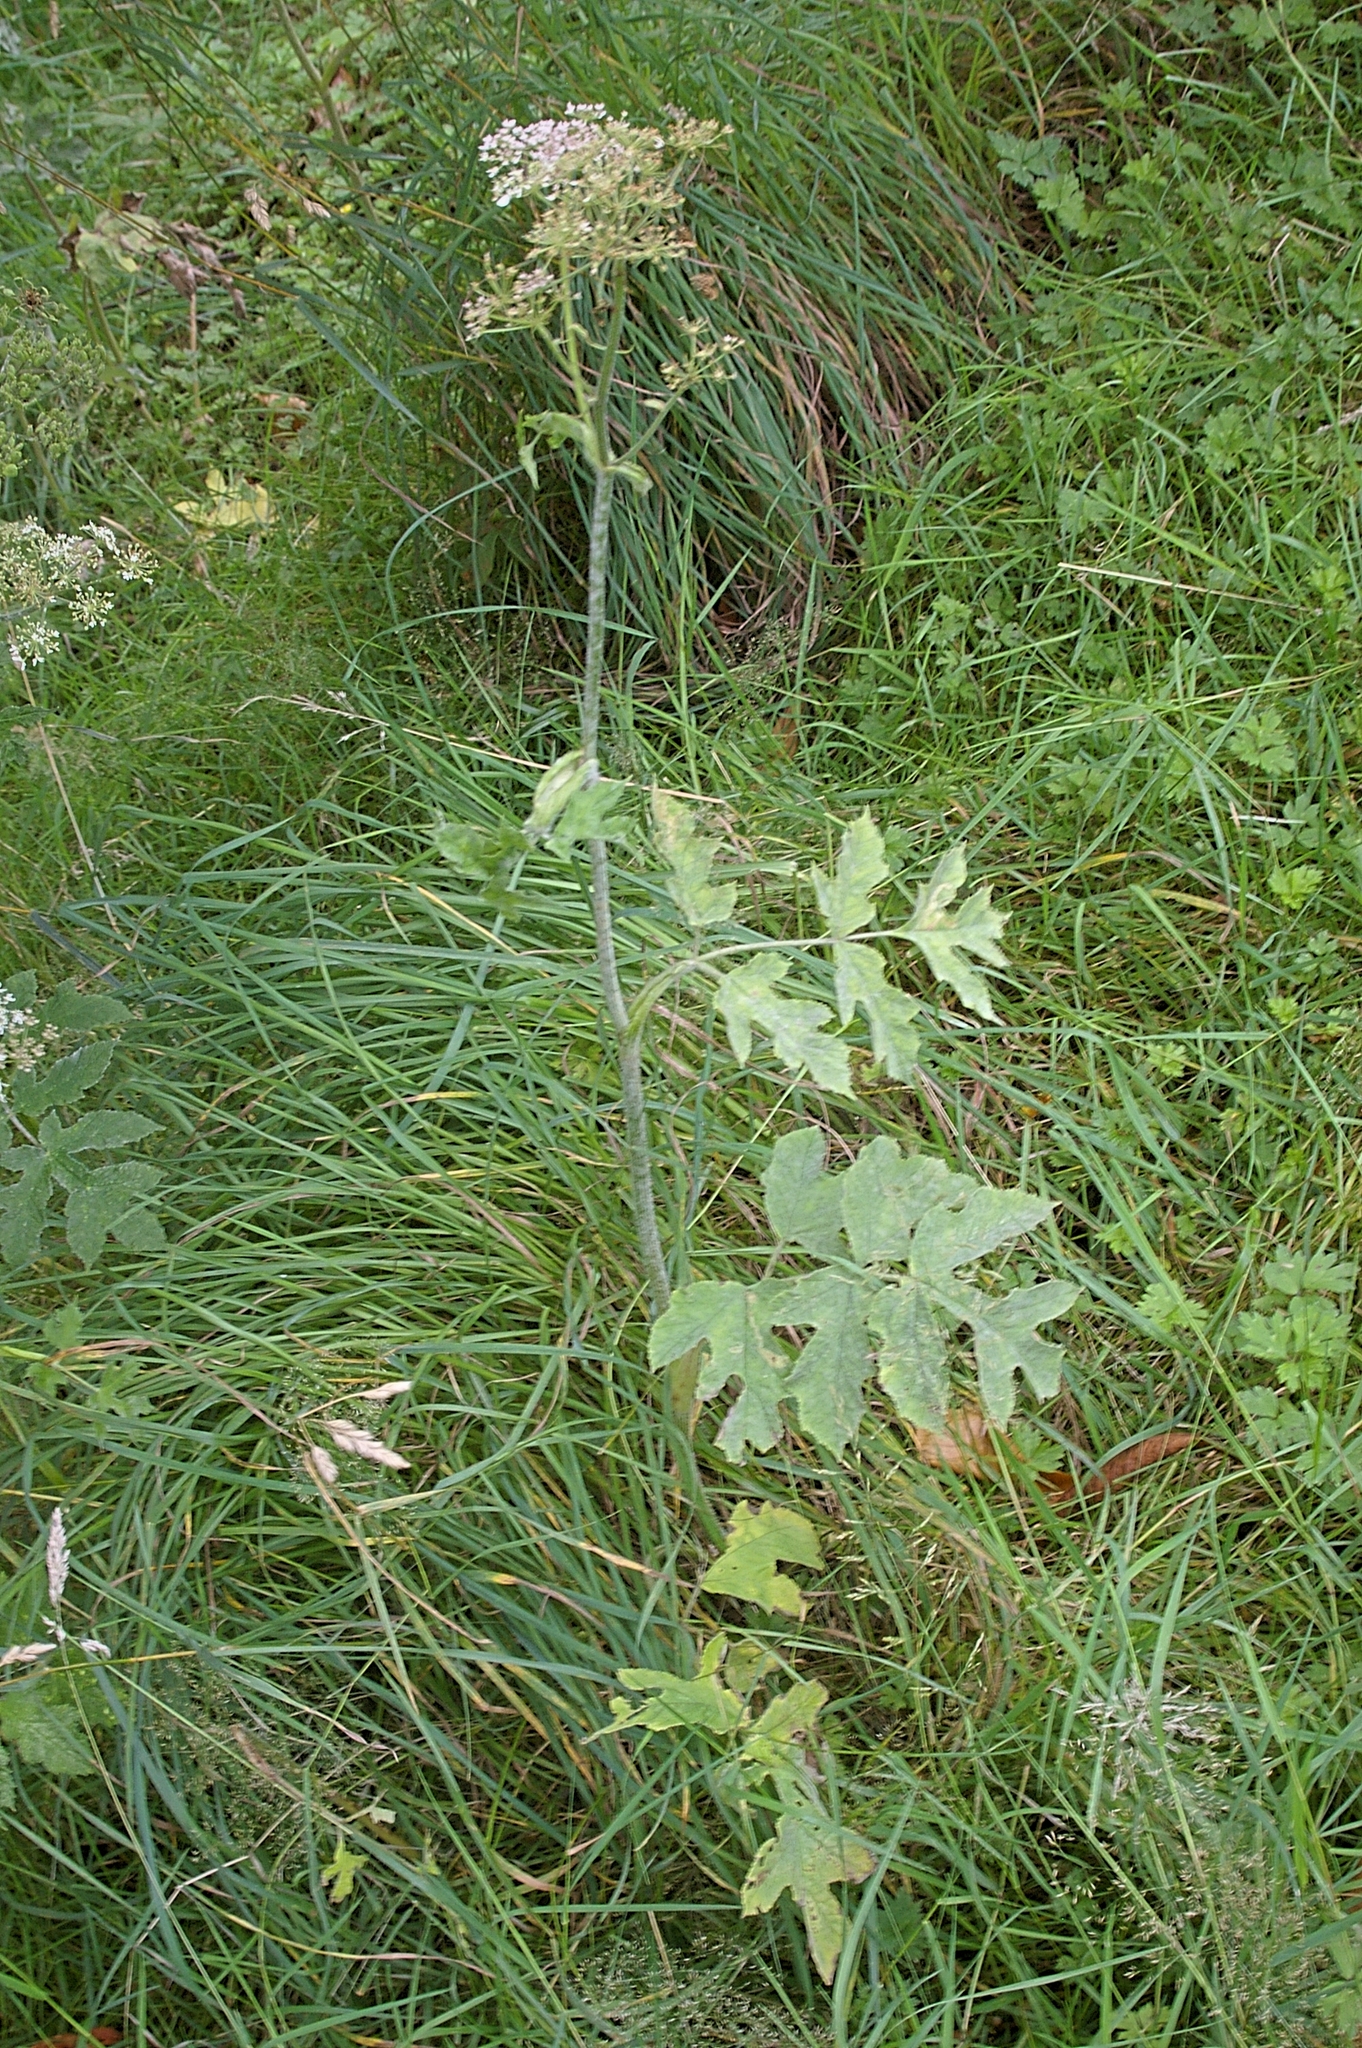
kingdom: Plantae
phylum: Tracheophyta
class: Magnoliopsida
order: Apiales
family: Apiaceae
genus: Heracleum
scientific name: Heracleum sphondylium
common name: Hogweed
